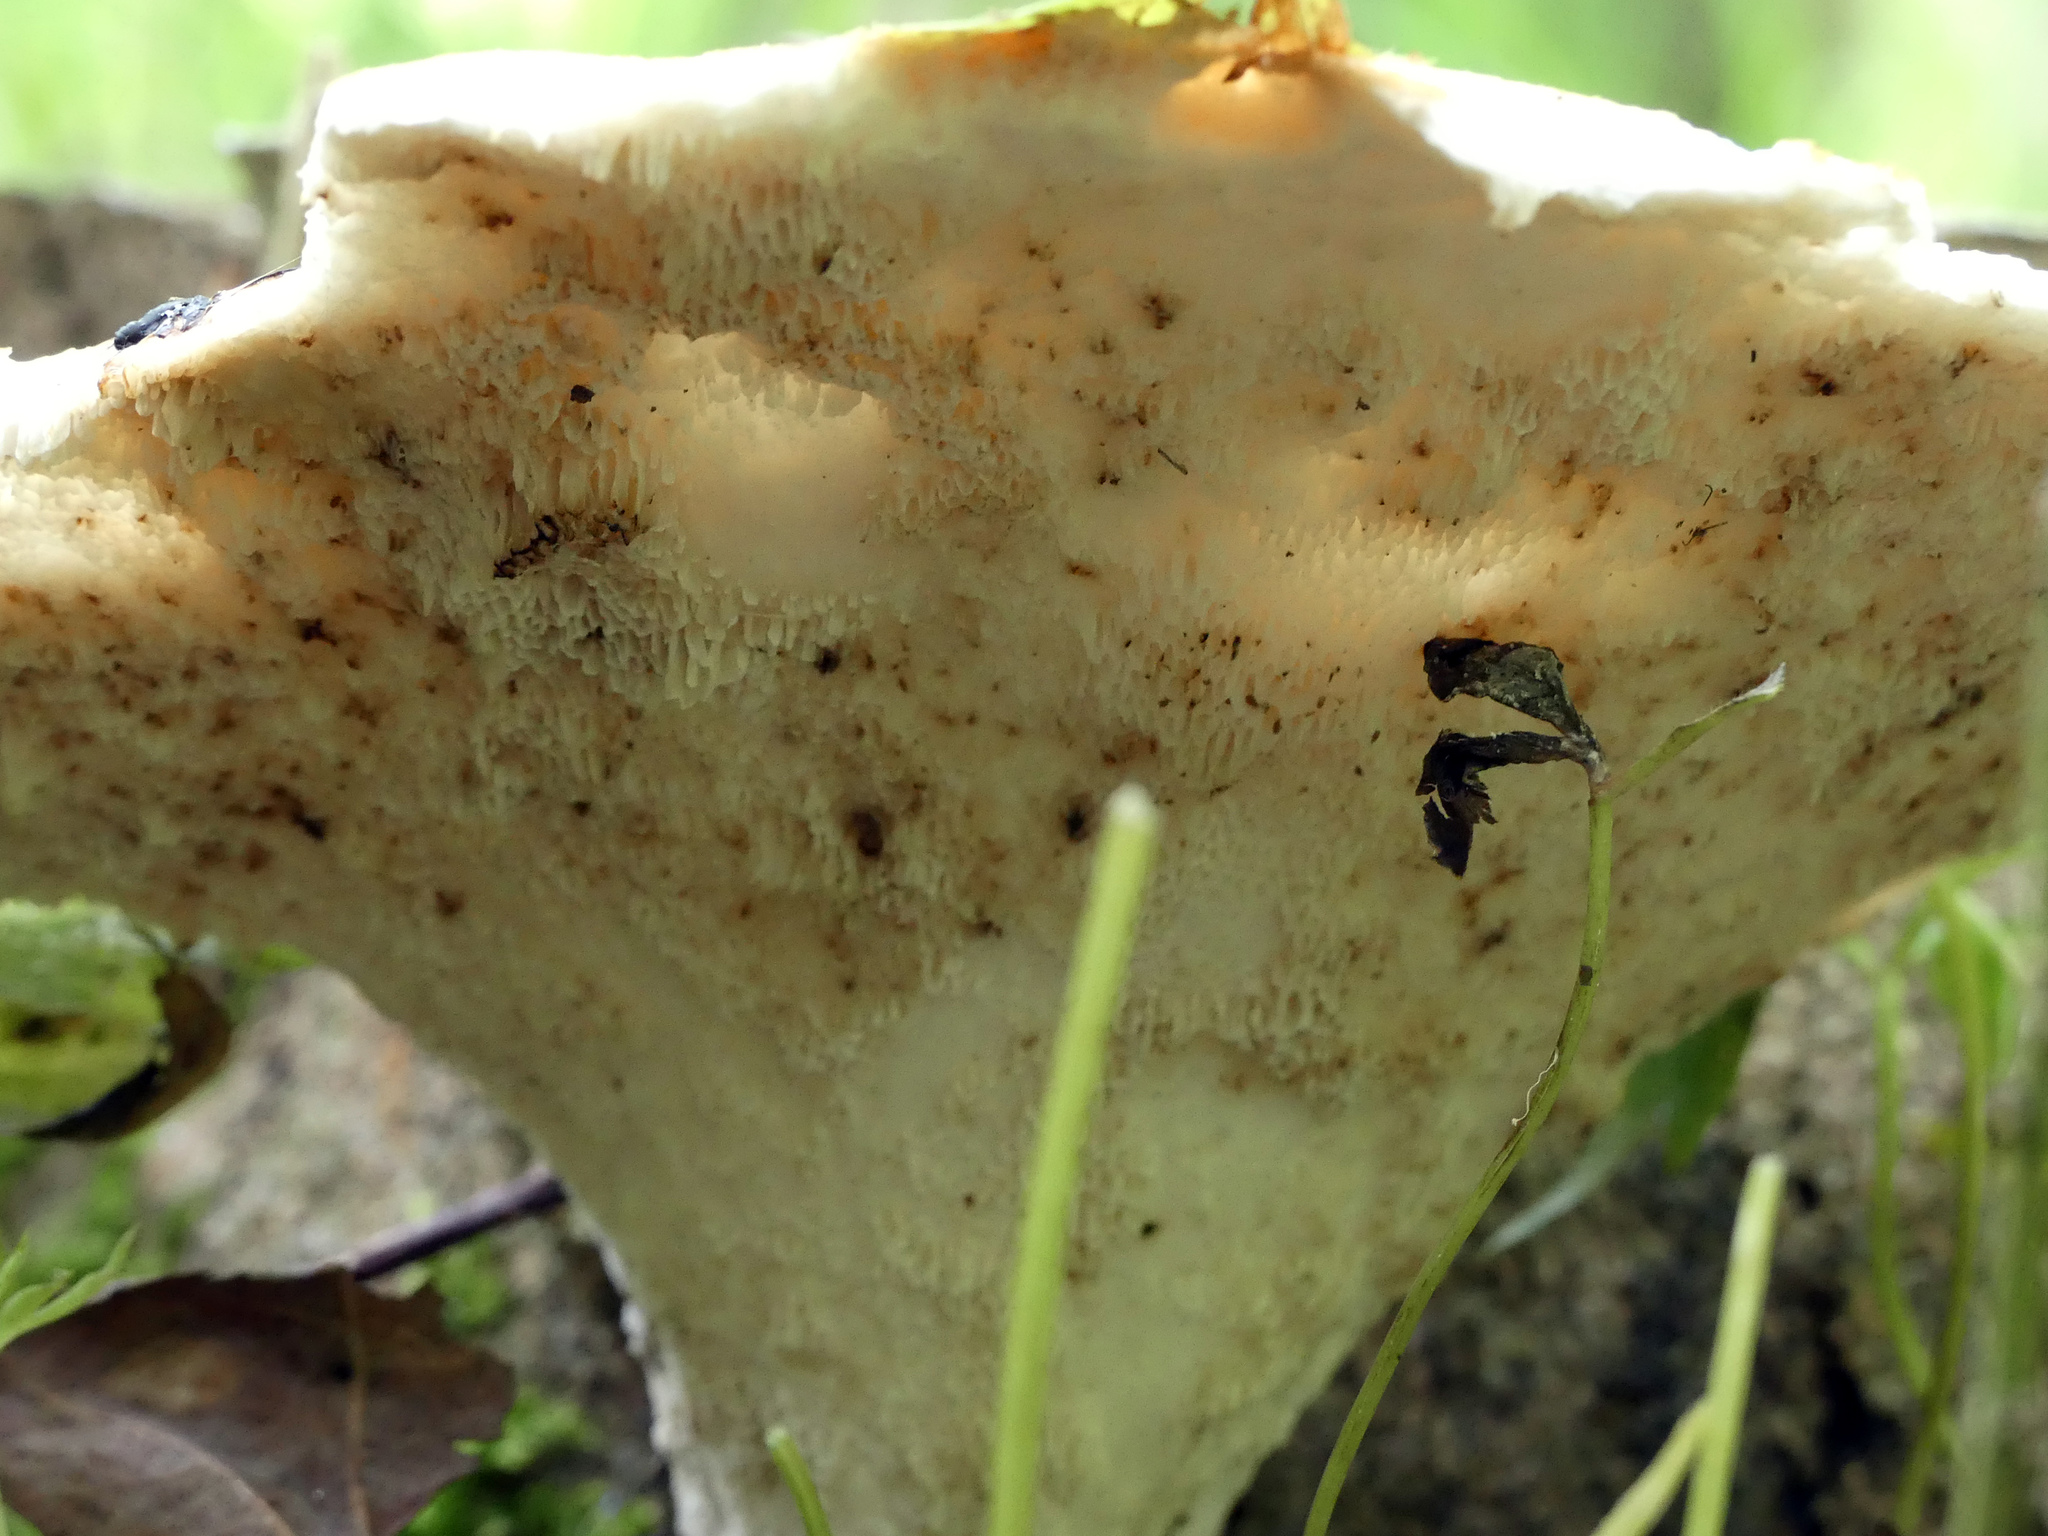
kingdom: Fungi
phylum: Basidiomycota
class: Agaricomycetes
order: Polyporales
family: Polyporaceae
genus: Cerioporus
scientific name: Cerioporus squamosus
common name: Dryad's saddle
